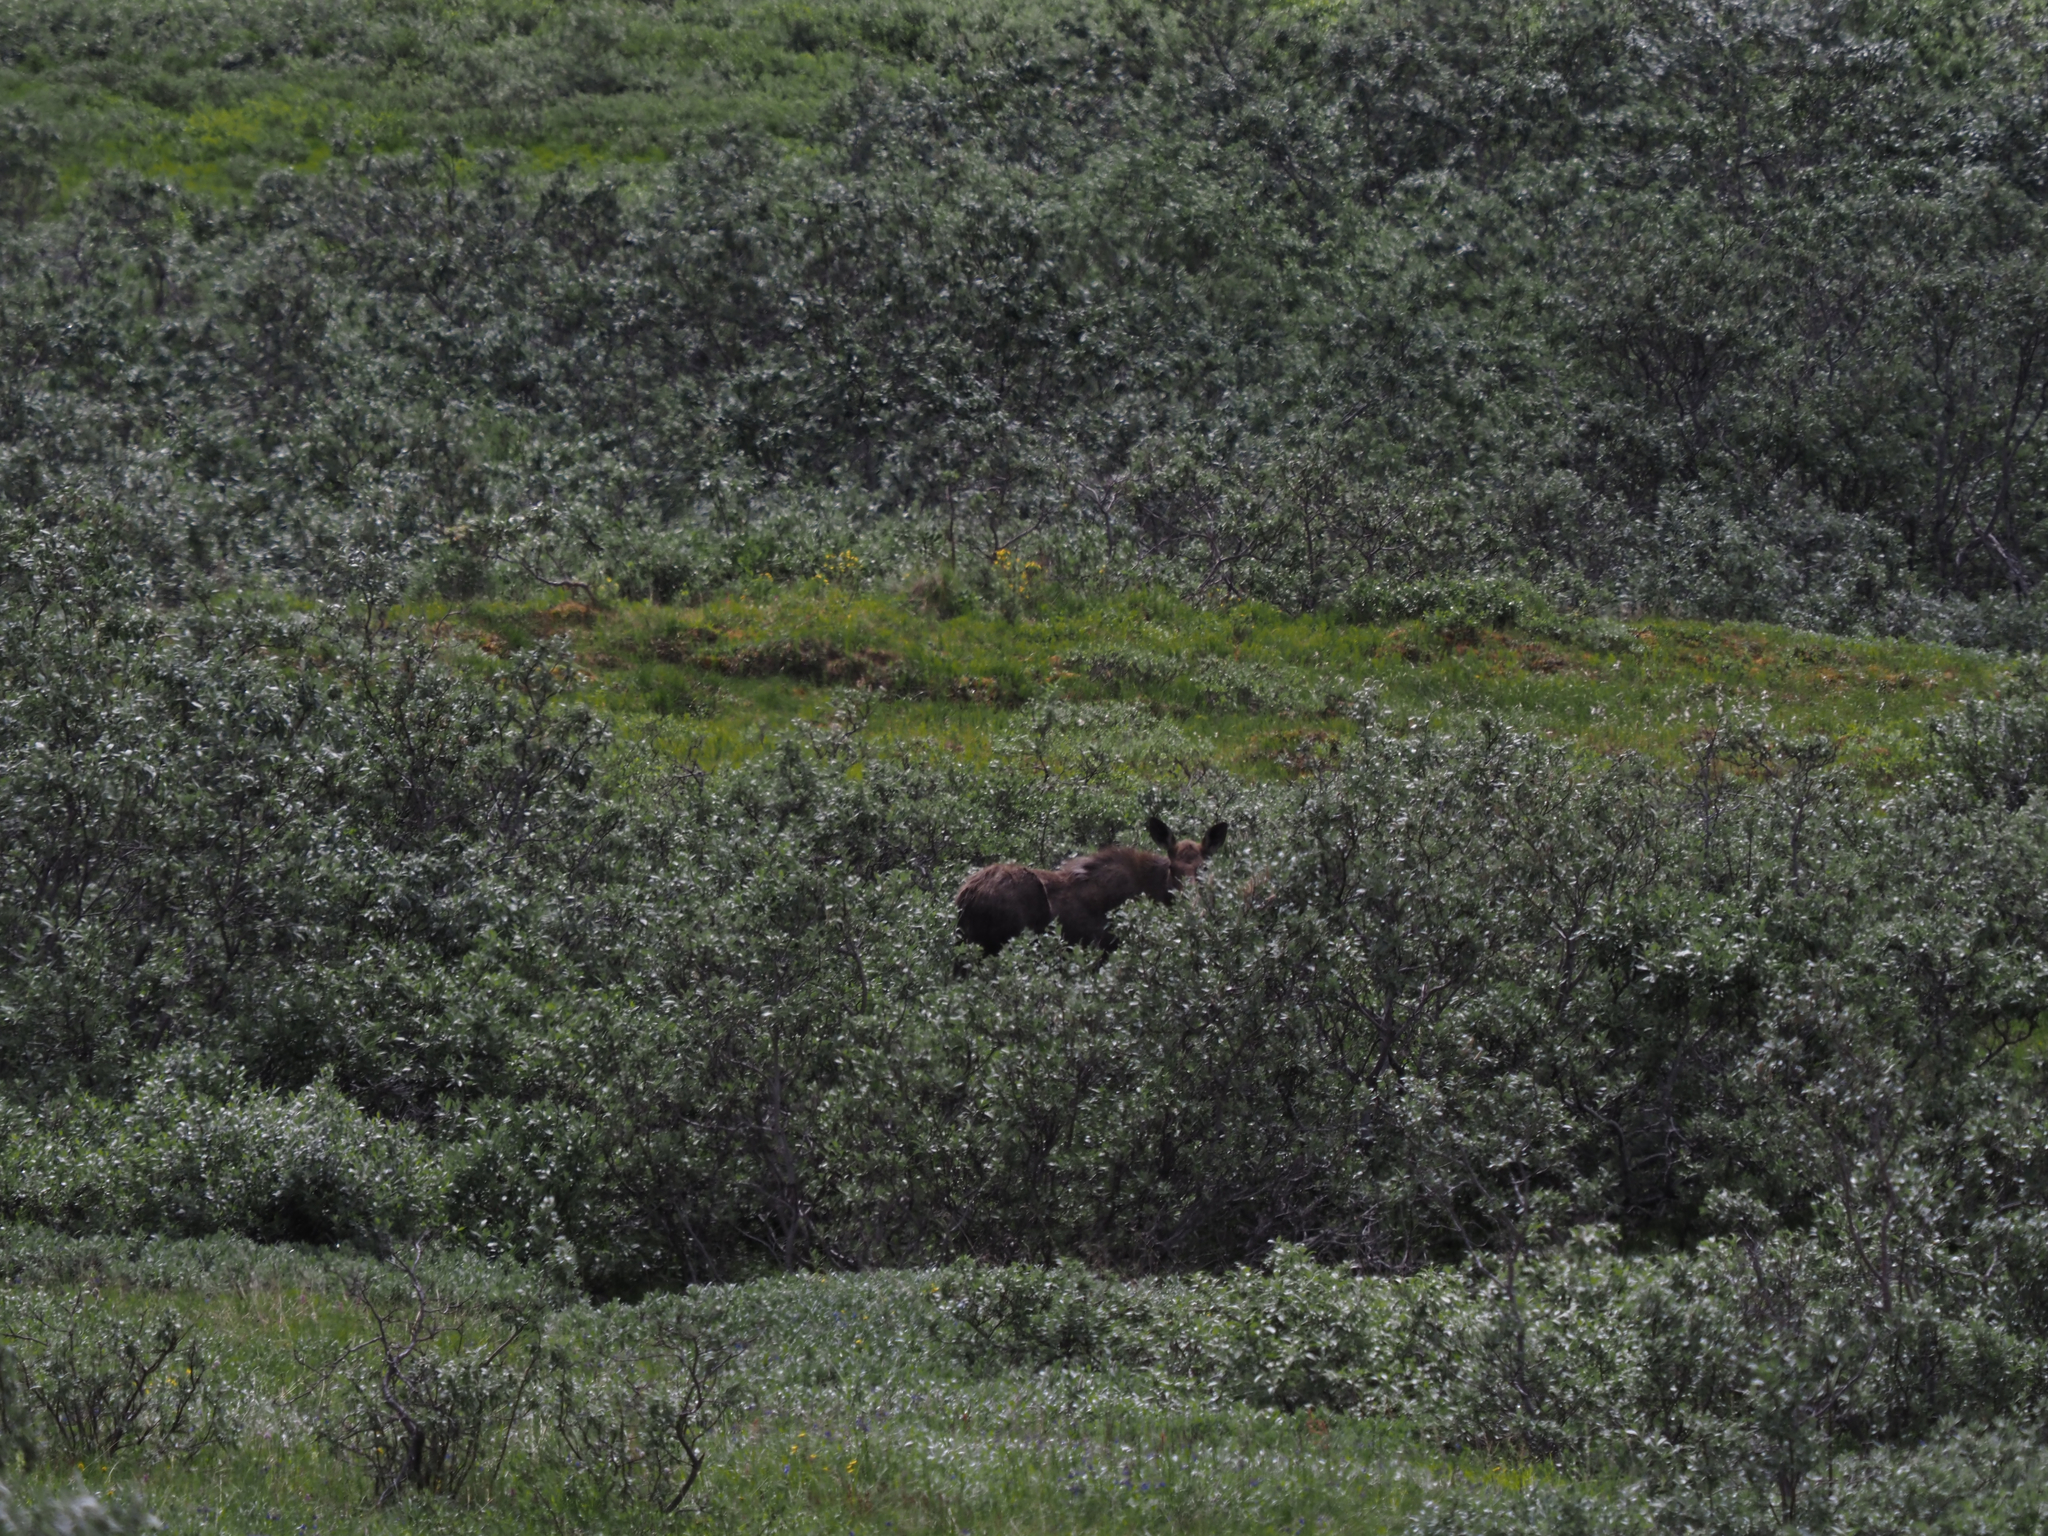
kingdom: Animalia
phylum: Chordata
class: Mammalia
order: Artiodactyla
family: Cervidae
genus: Alces
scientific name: Alces alces
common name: Moose
